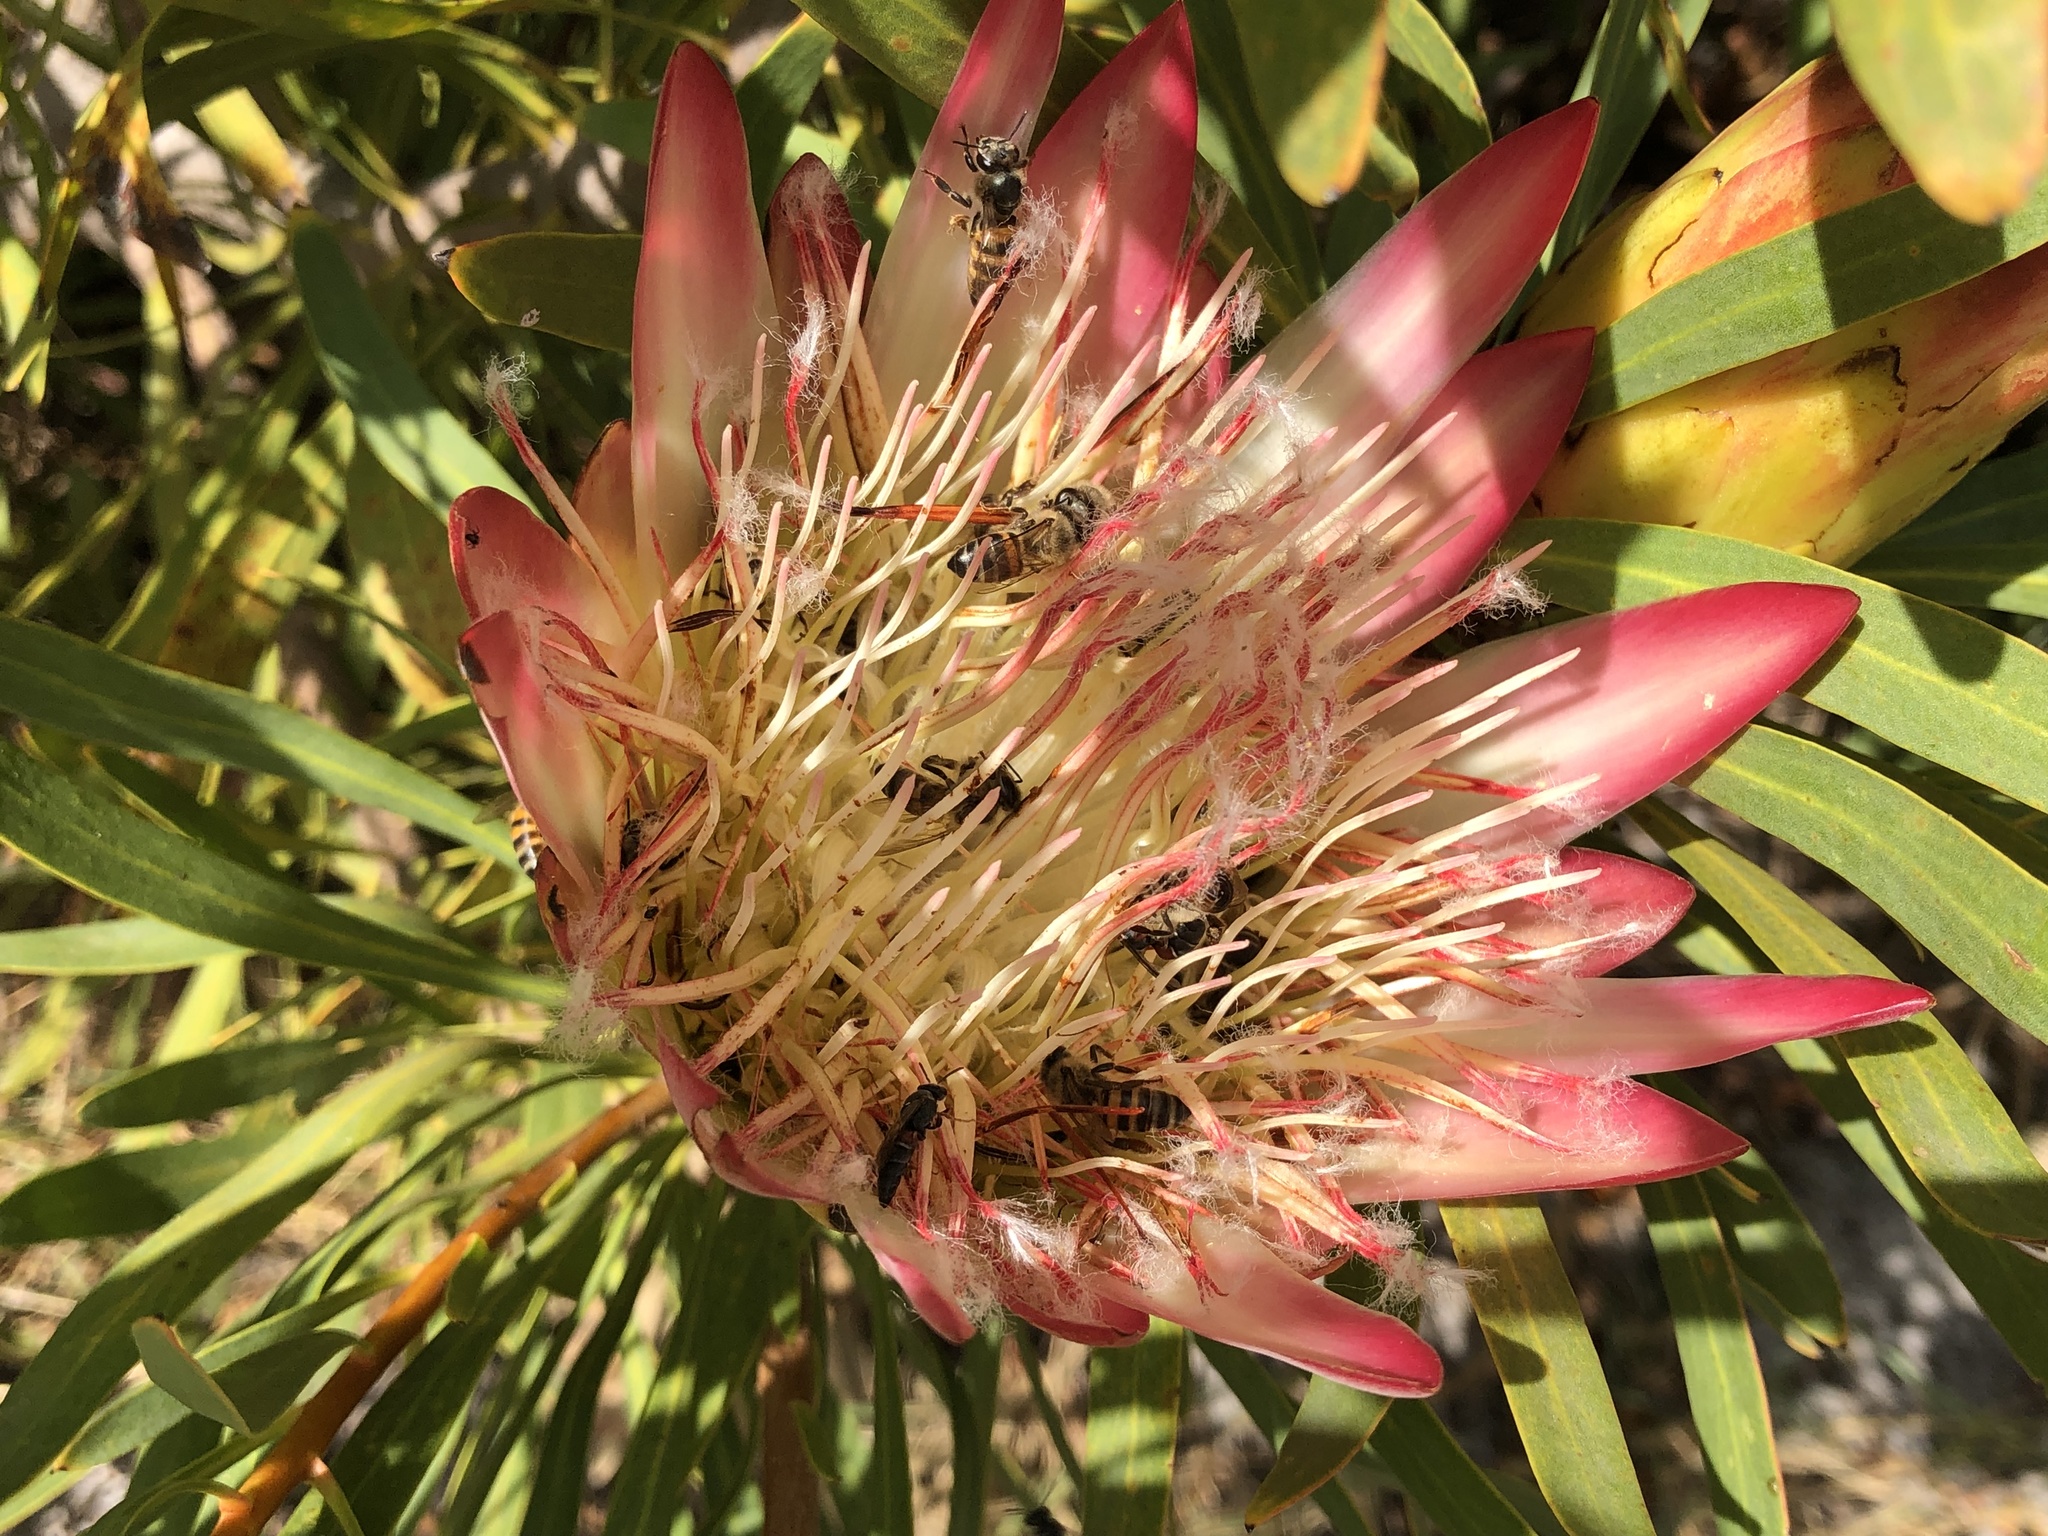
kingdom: Plantae
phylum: Tracheophyta
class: Magnoliopsida
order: Proteales
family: Proteaceae
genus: Protea
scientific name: Protea repens
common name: Sugarbush
